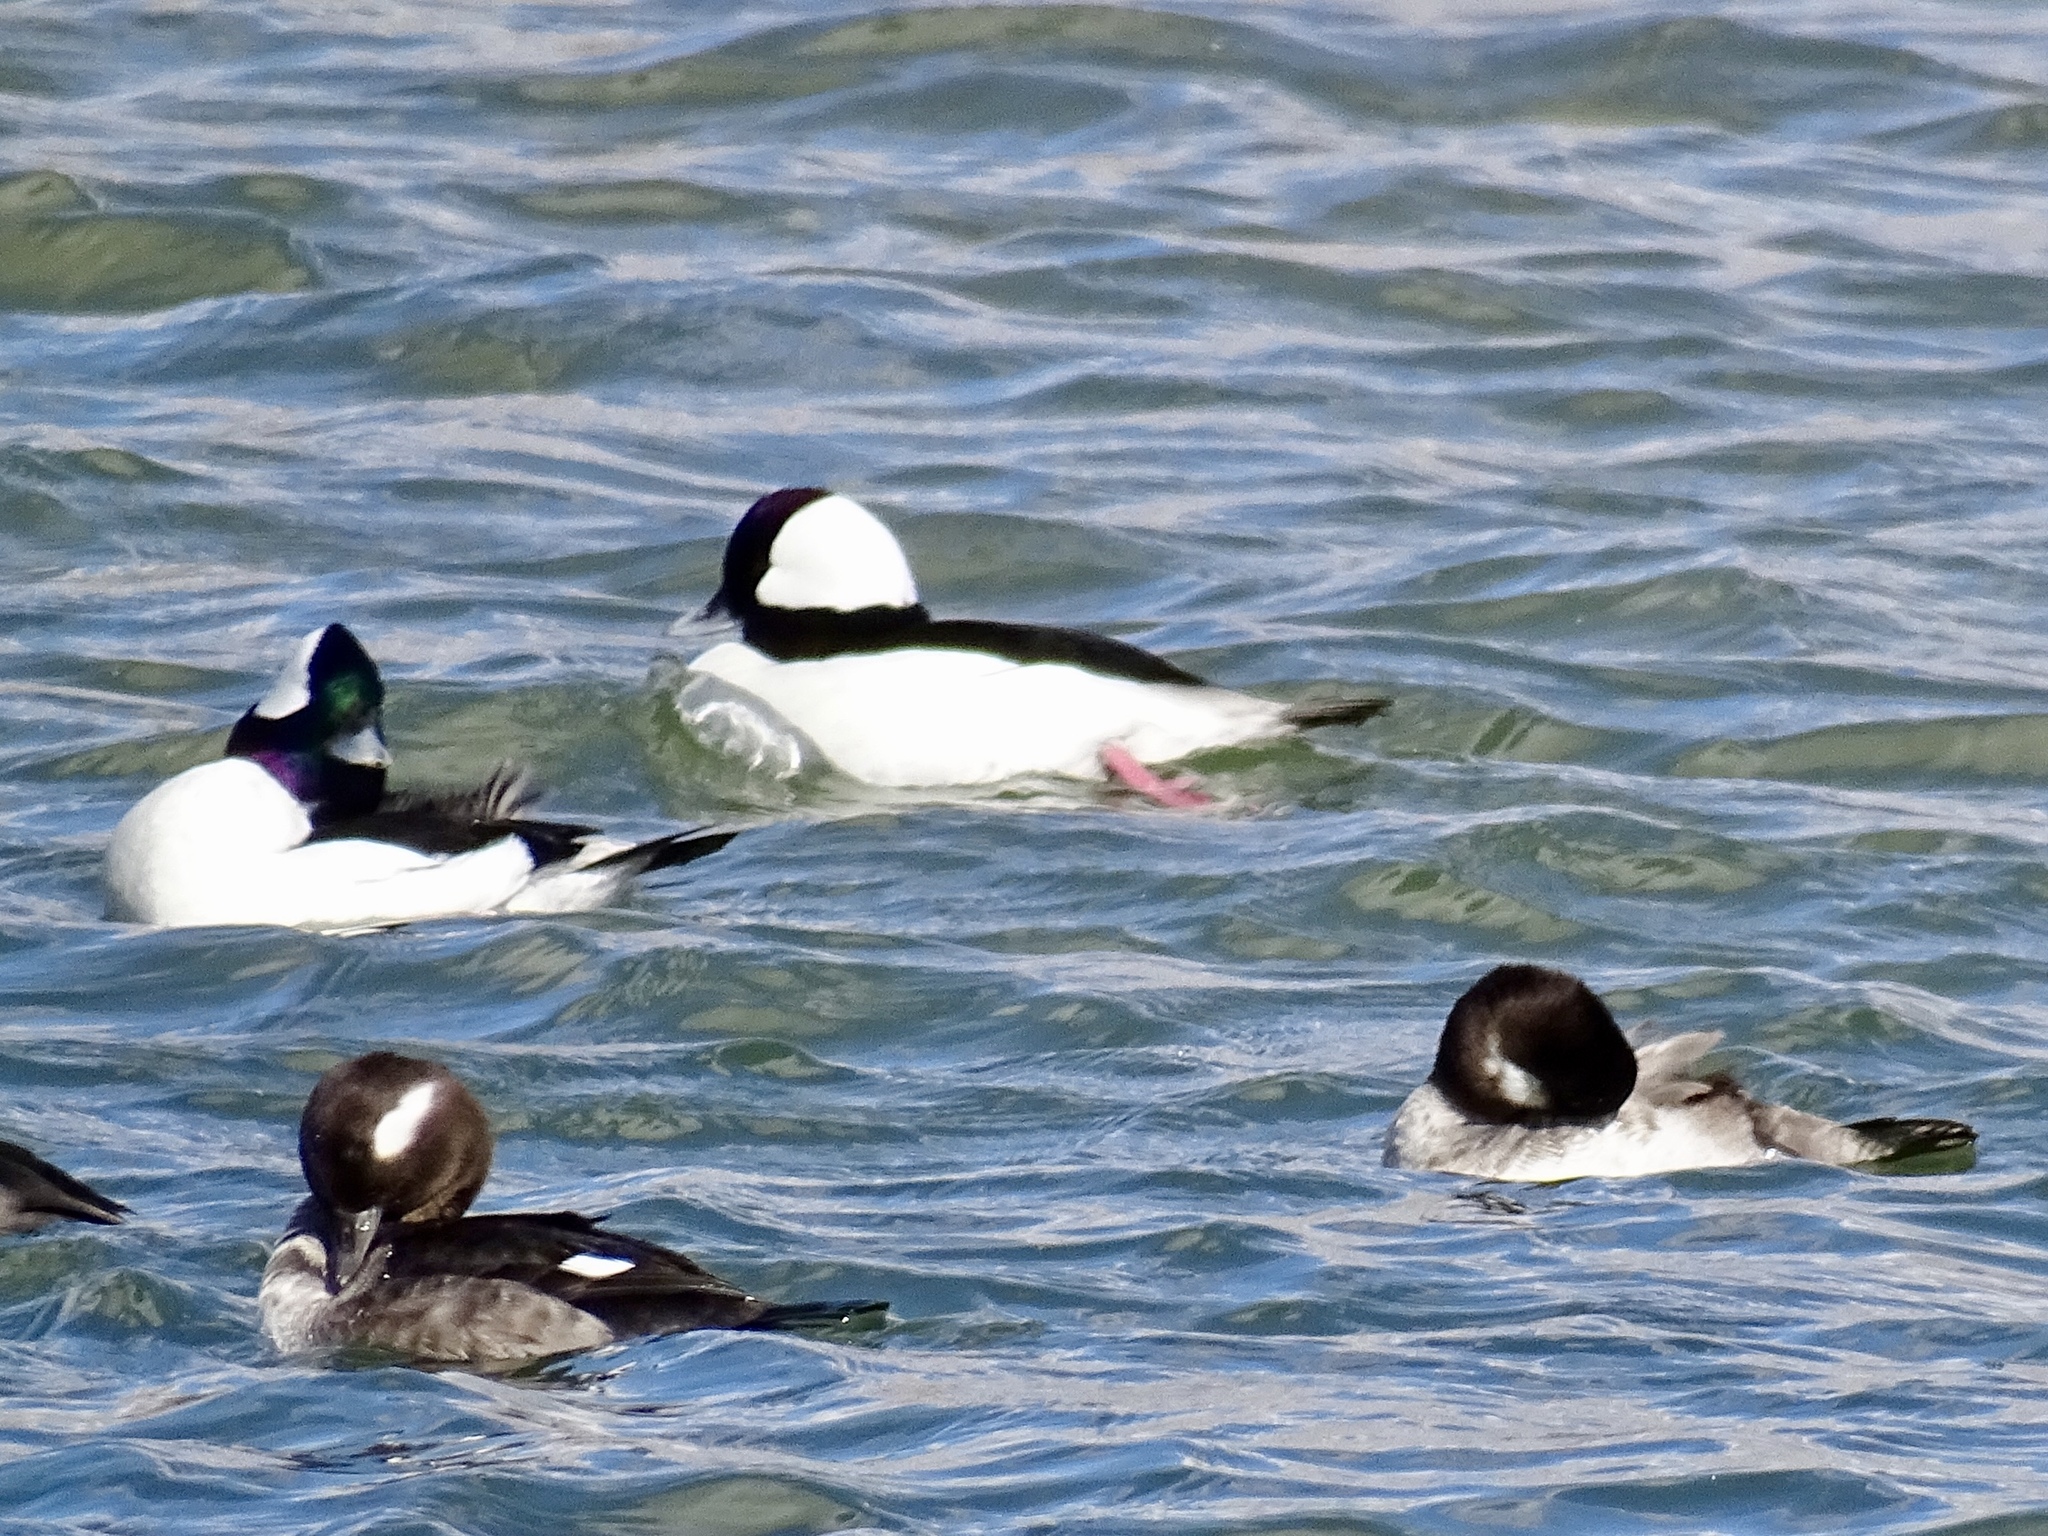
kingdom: Animalia
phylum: Chordata
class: Aves
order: Anseriformes
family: Anatidae
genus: Bucephala
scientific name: Bucephala albeola
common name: Bufflehead
